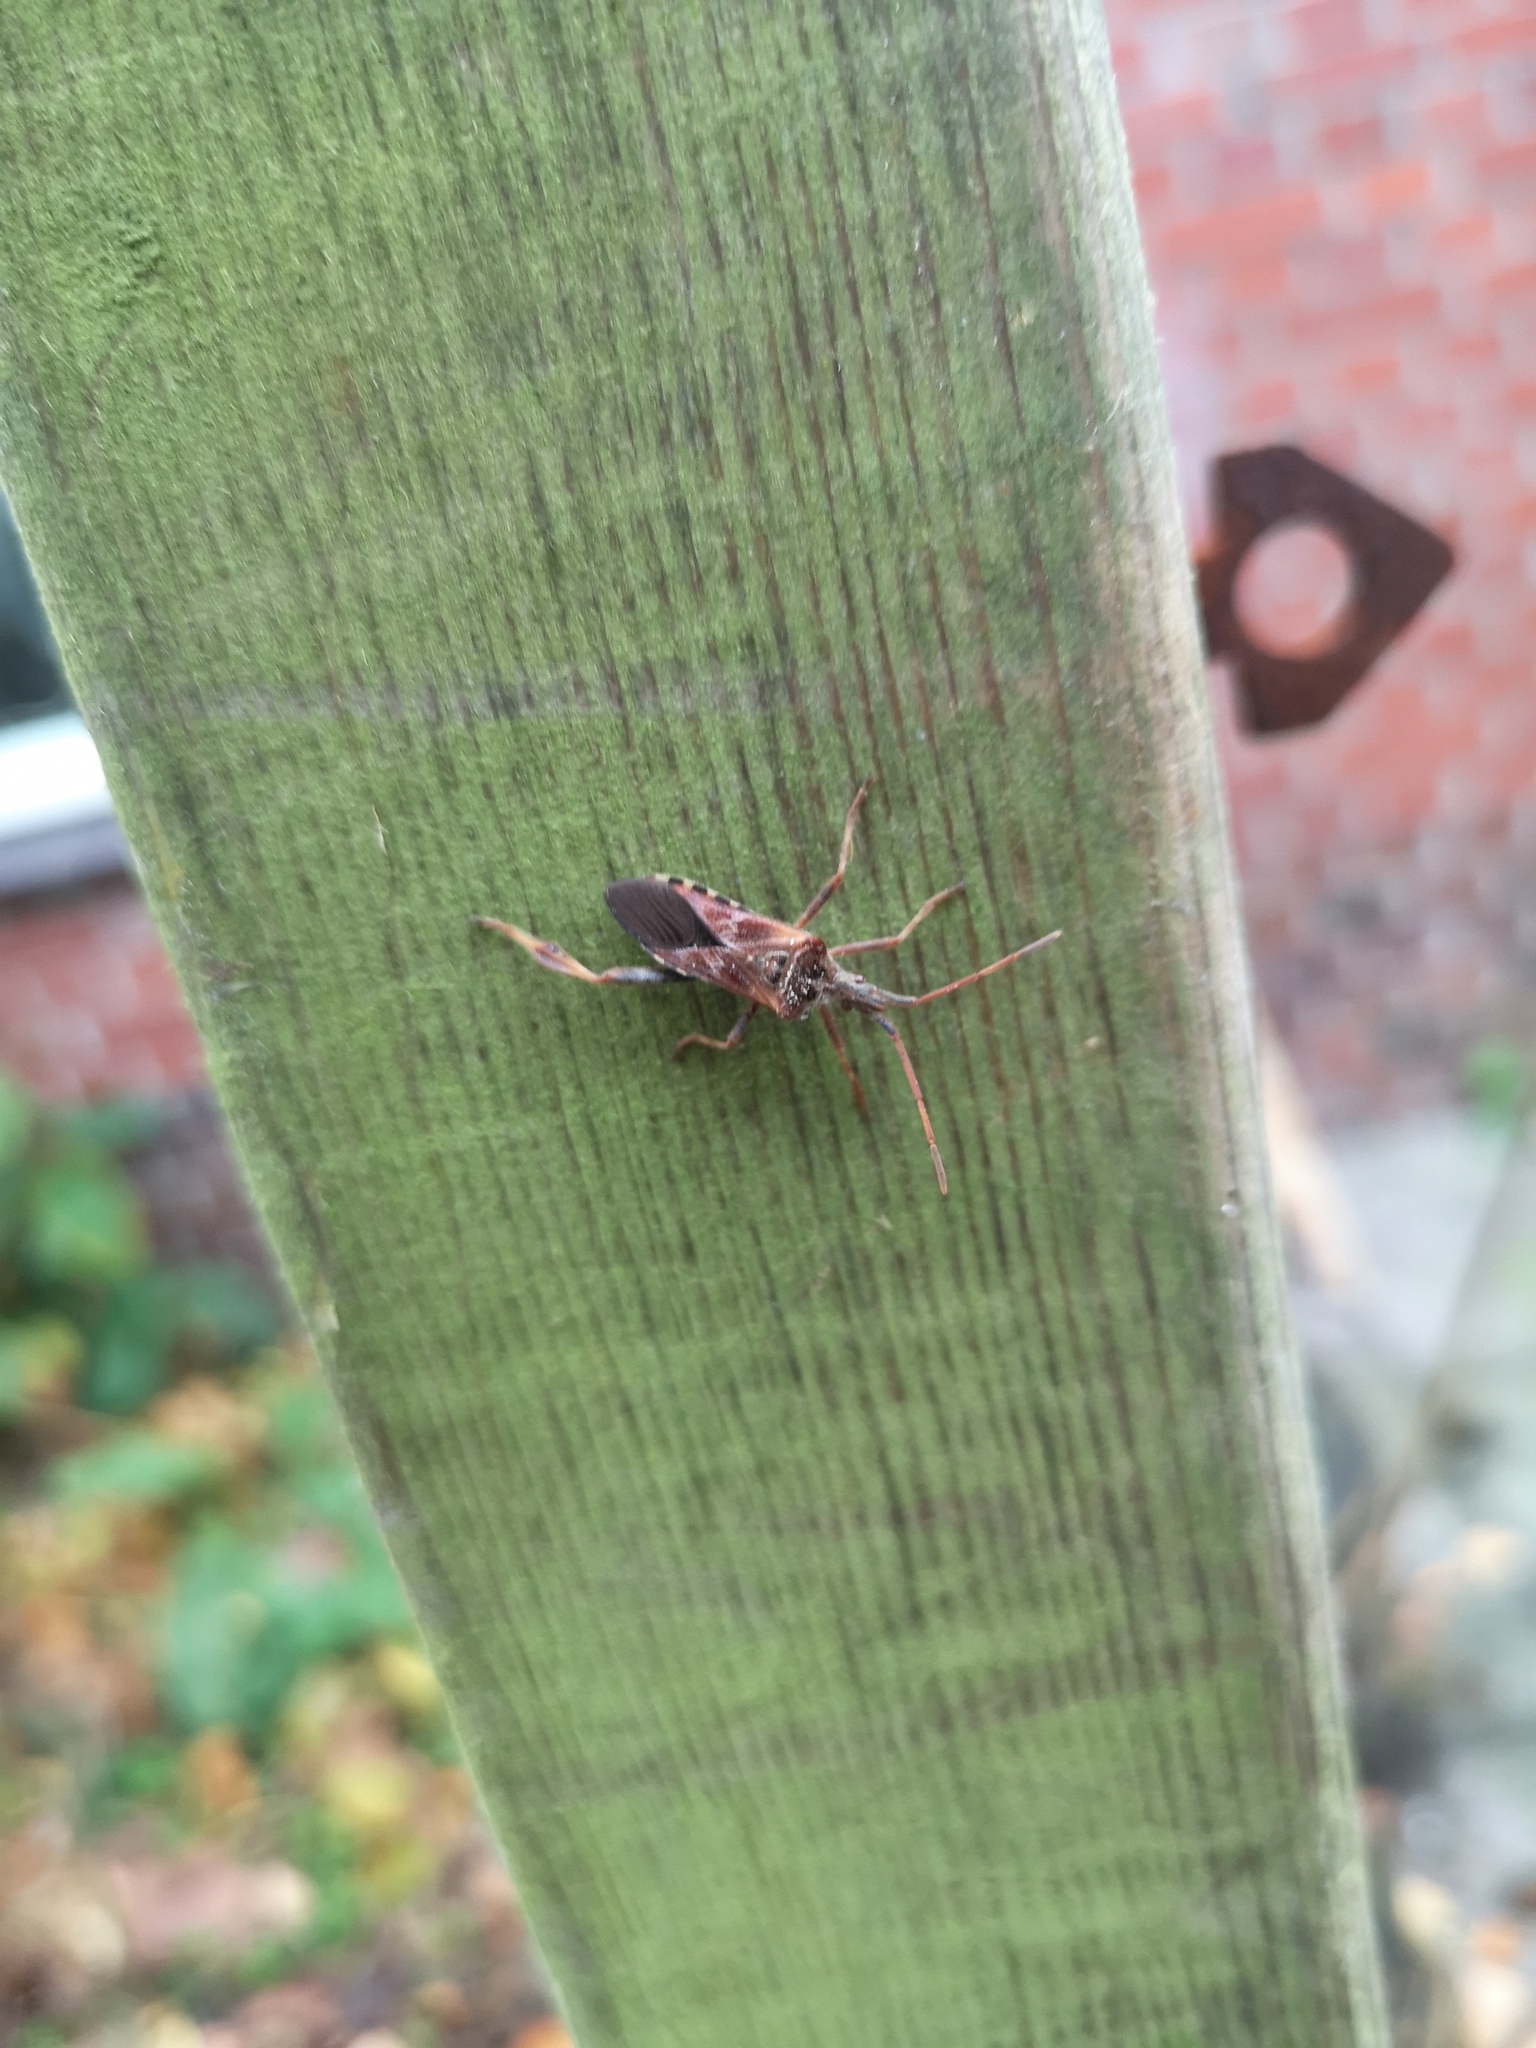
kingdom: Animalia
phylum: Arthropoda
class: Insecta
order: Hemiptera
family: Coreidae
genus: Leptoglossus
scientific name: Leptoglossus occidentalis
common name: Western conifer-seed bug
